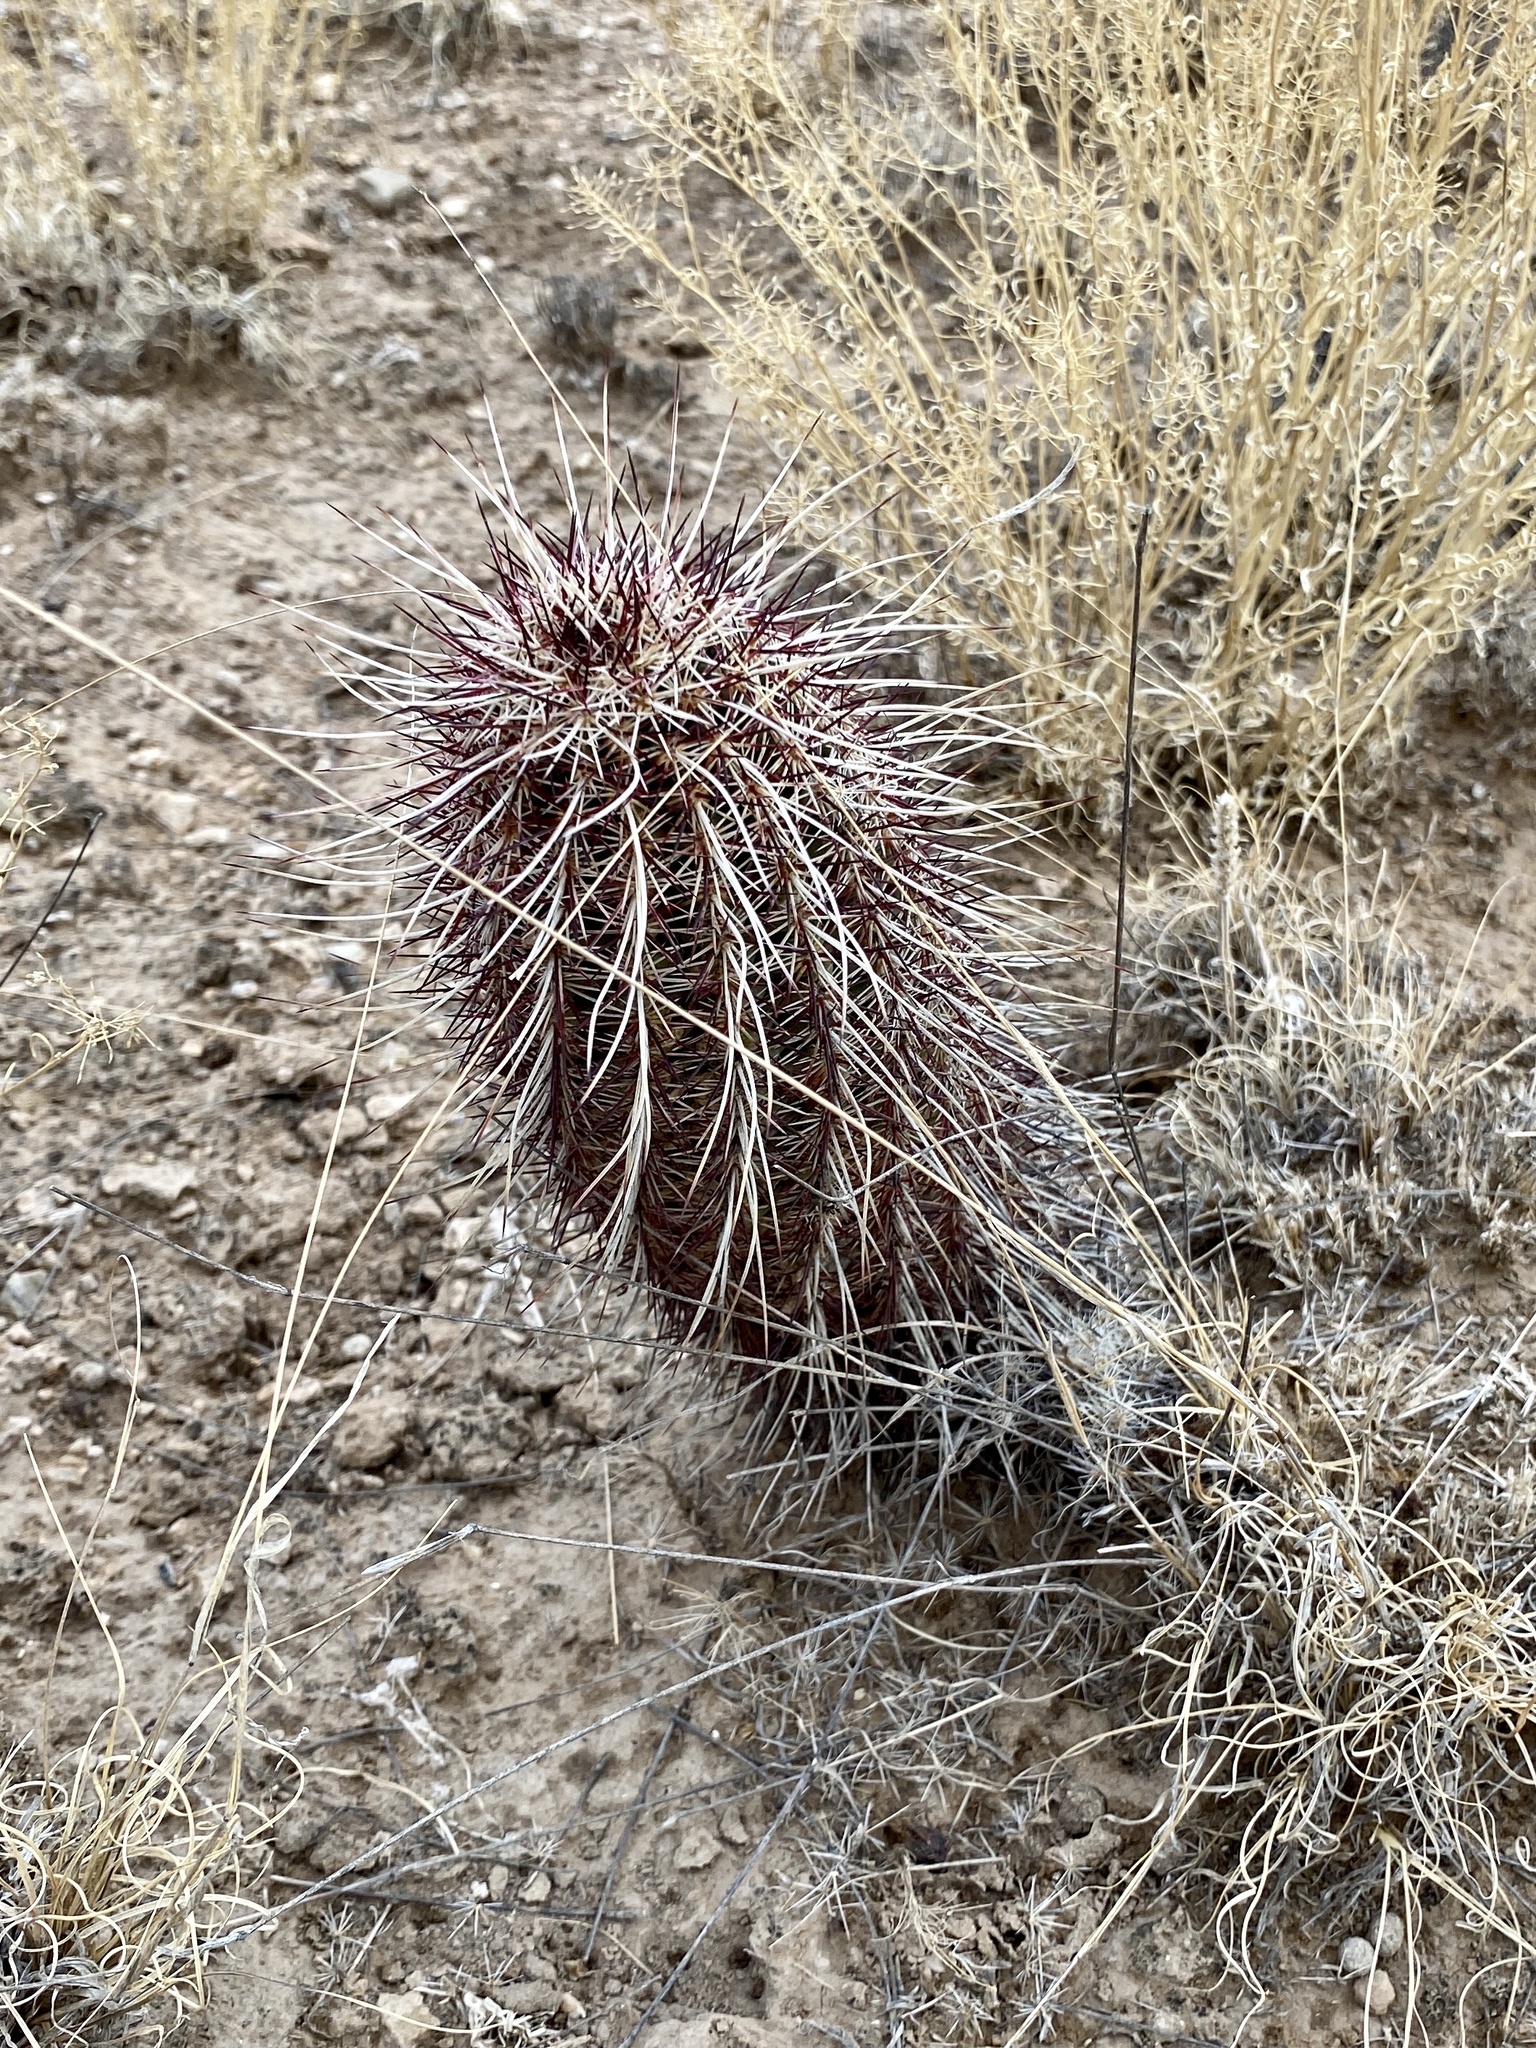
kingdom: Plantae
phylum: Tracheophyta
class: Magnoliopsida
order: Caryophyllales
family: Cactaceae
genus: Echinocereus
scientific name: Echinocereus viridiflorus
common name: Nylon hedgehog cactus
